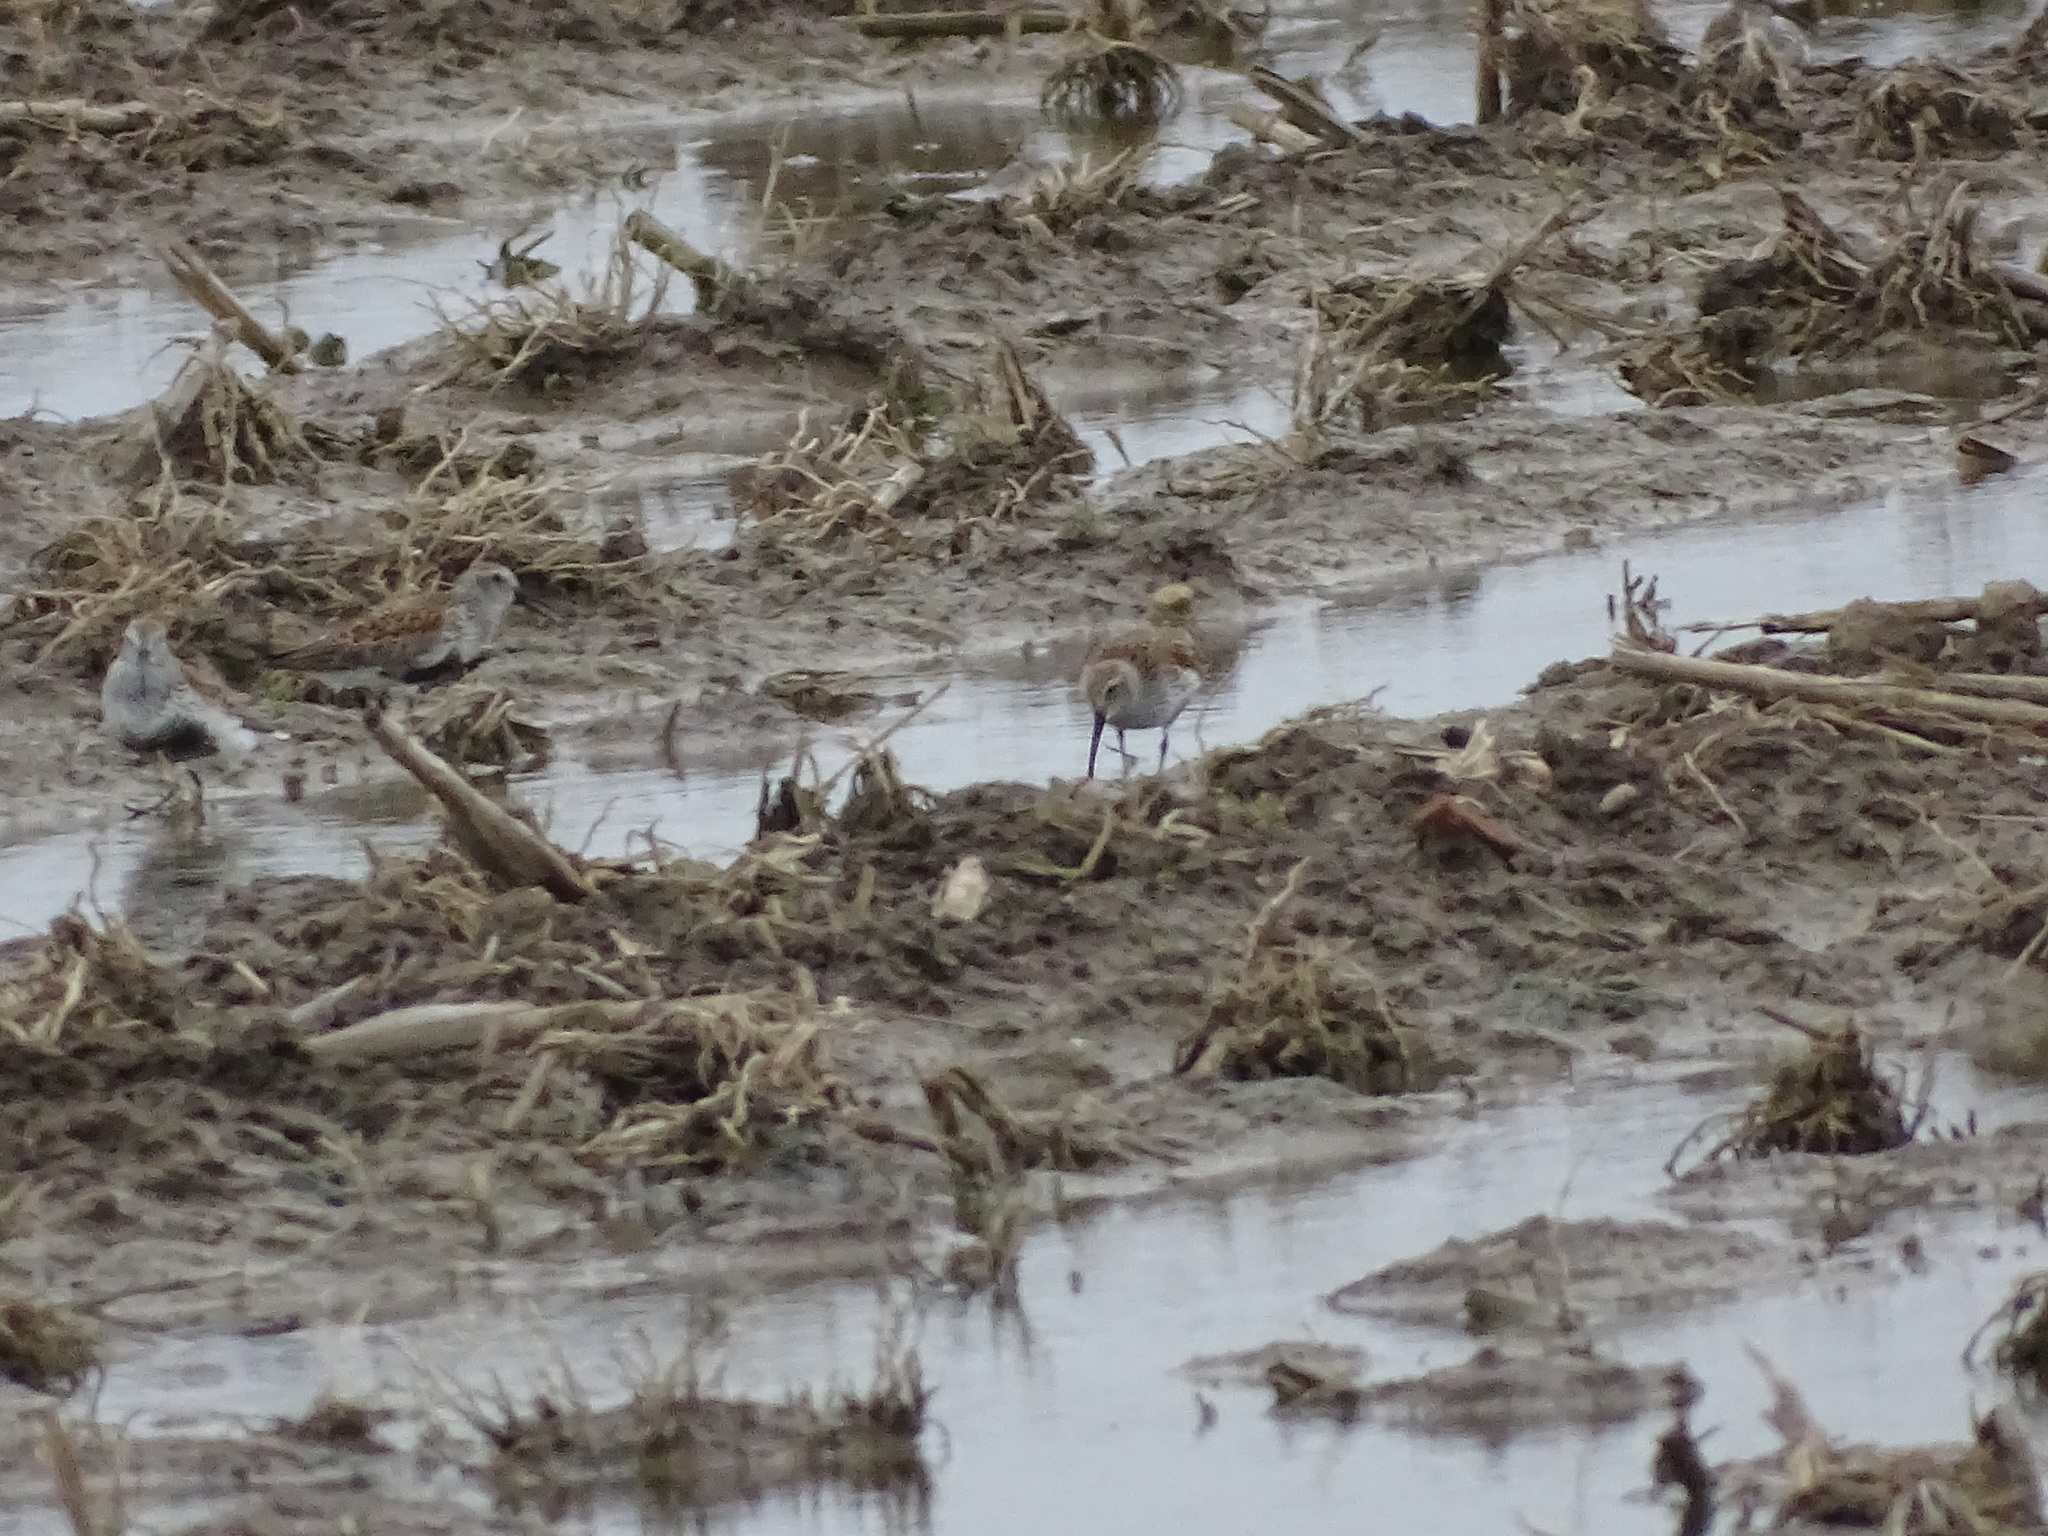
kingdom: Animalia
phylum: Chordata
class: Aves
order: Charadriiformes
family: Scolopacidae
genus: Calidris
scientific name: Calidris alpina
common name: Dunlin
